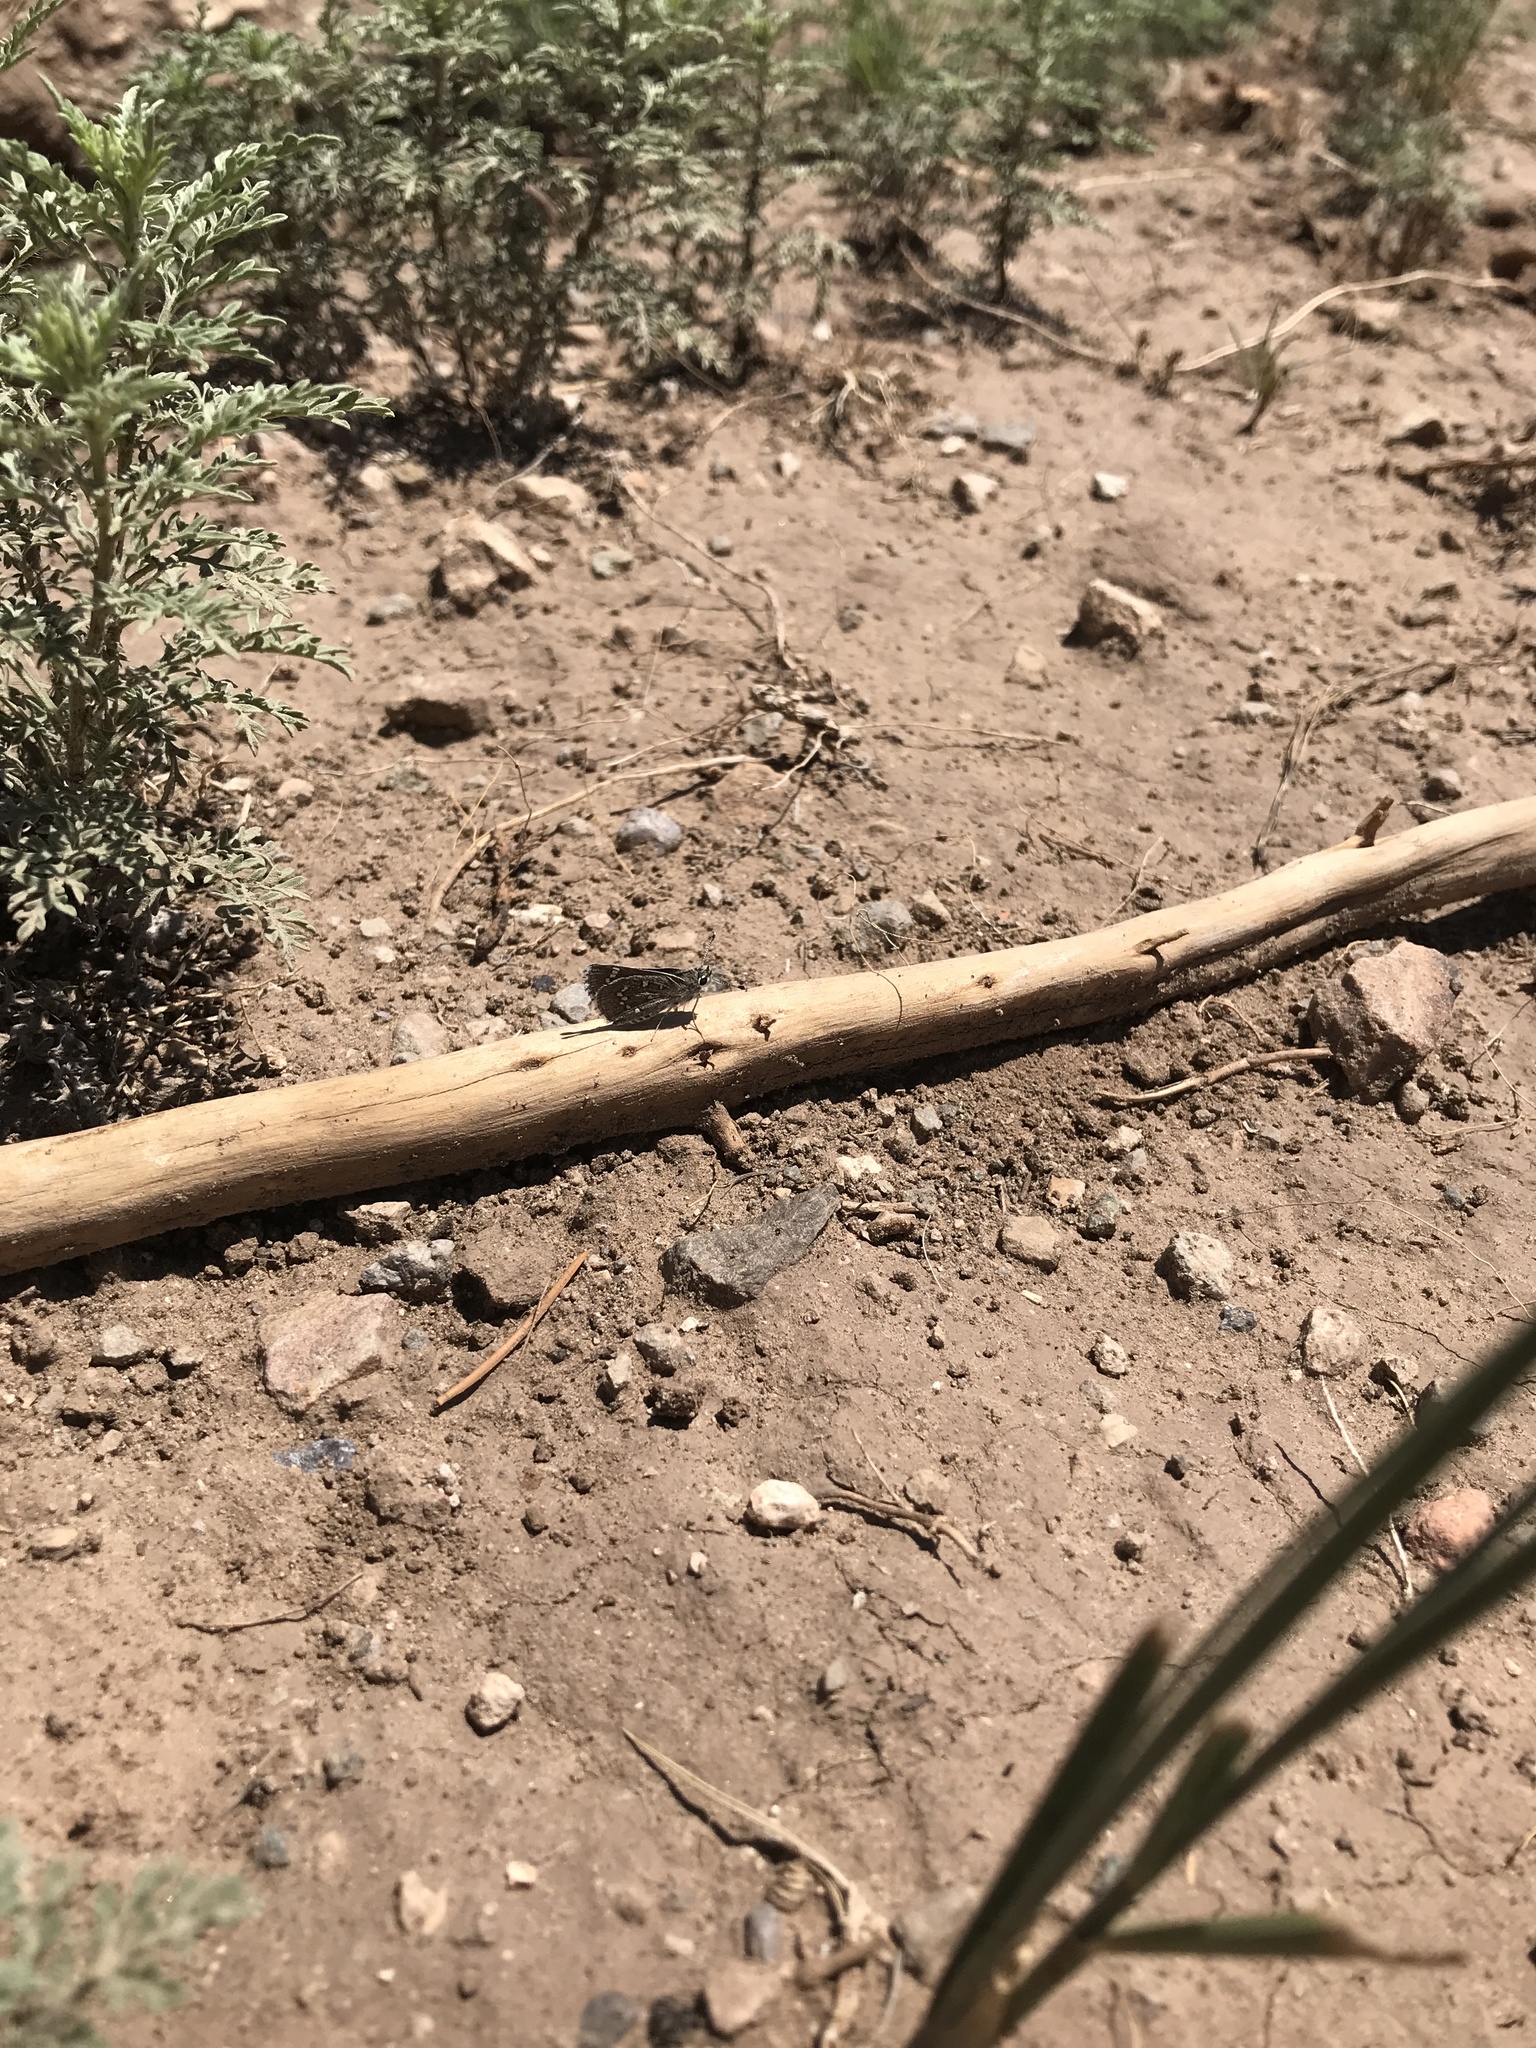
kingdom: Animalia
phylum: Arthropoda
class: Insecta
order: Lepidoptera
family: Hesperiidae
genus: Mastor
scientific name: Mastor eos
